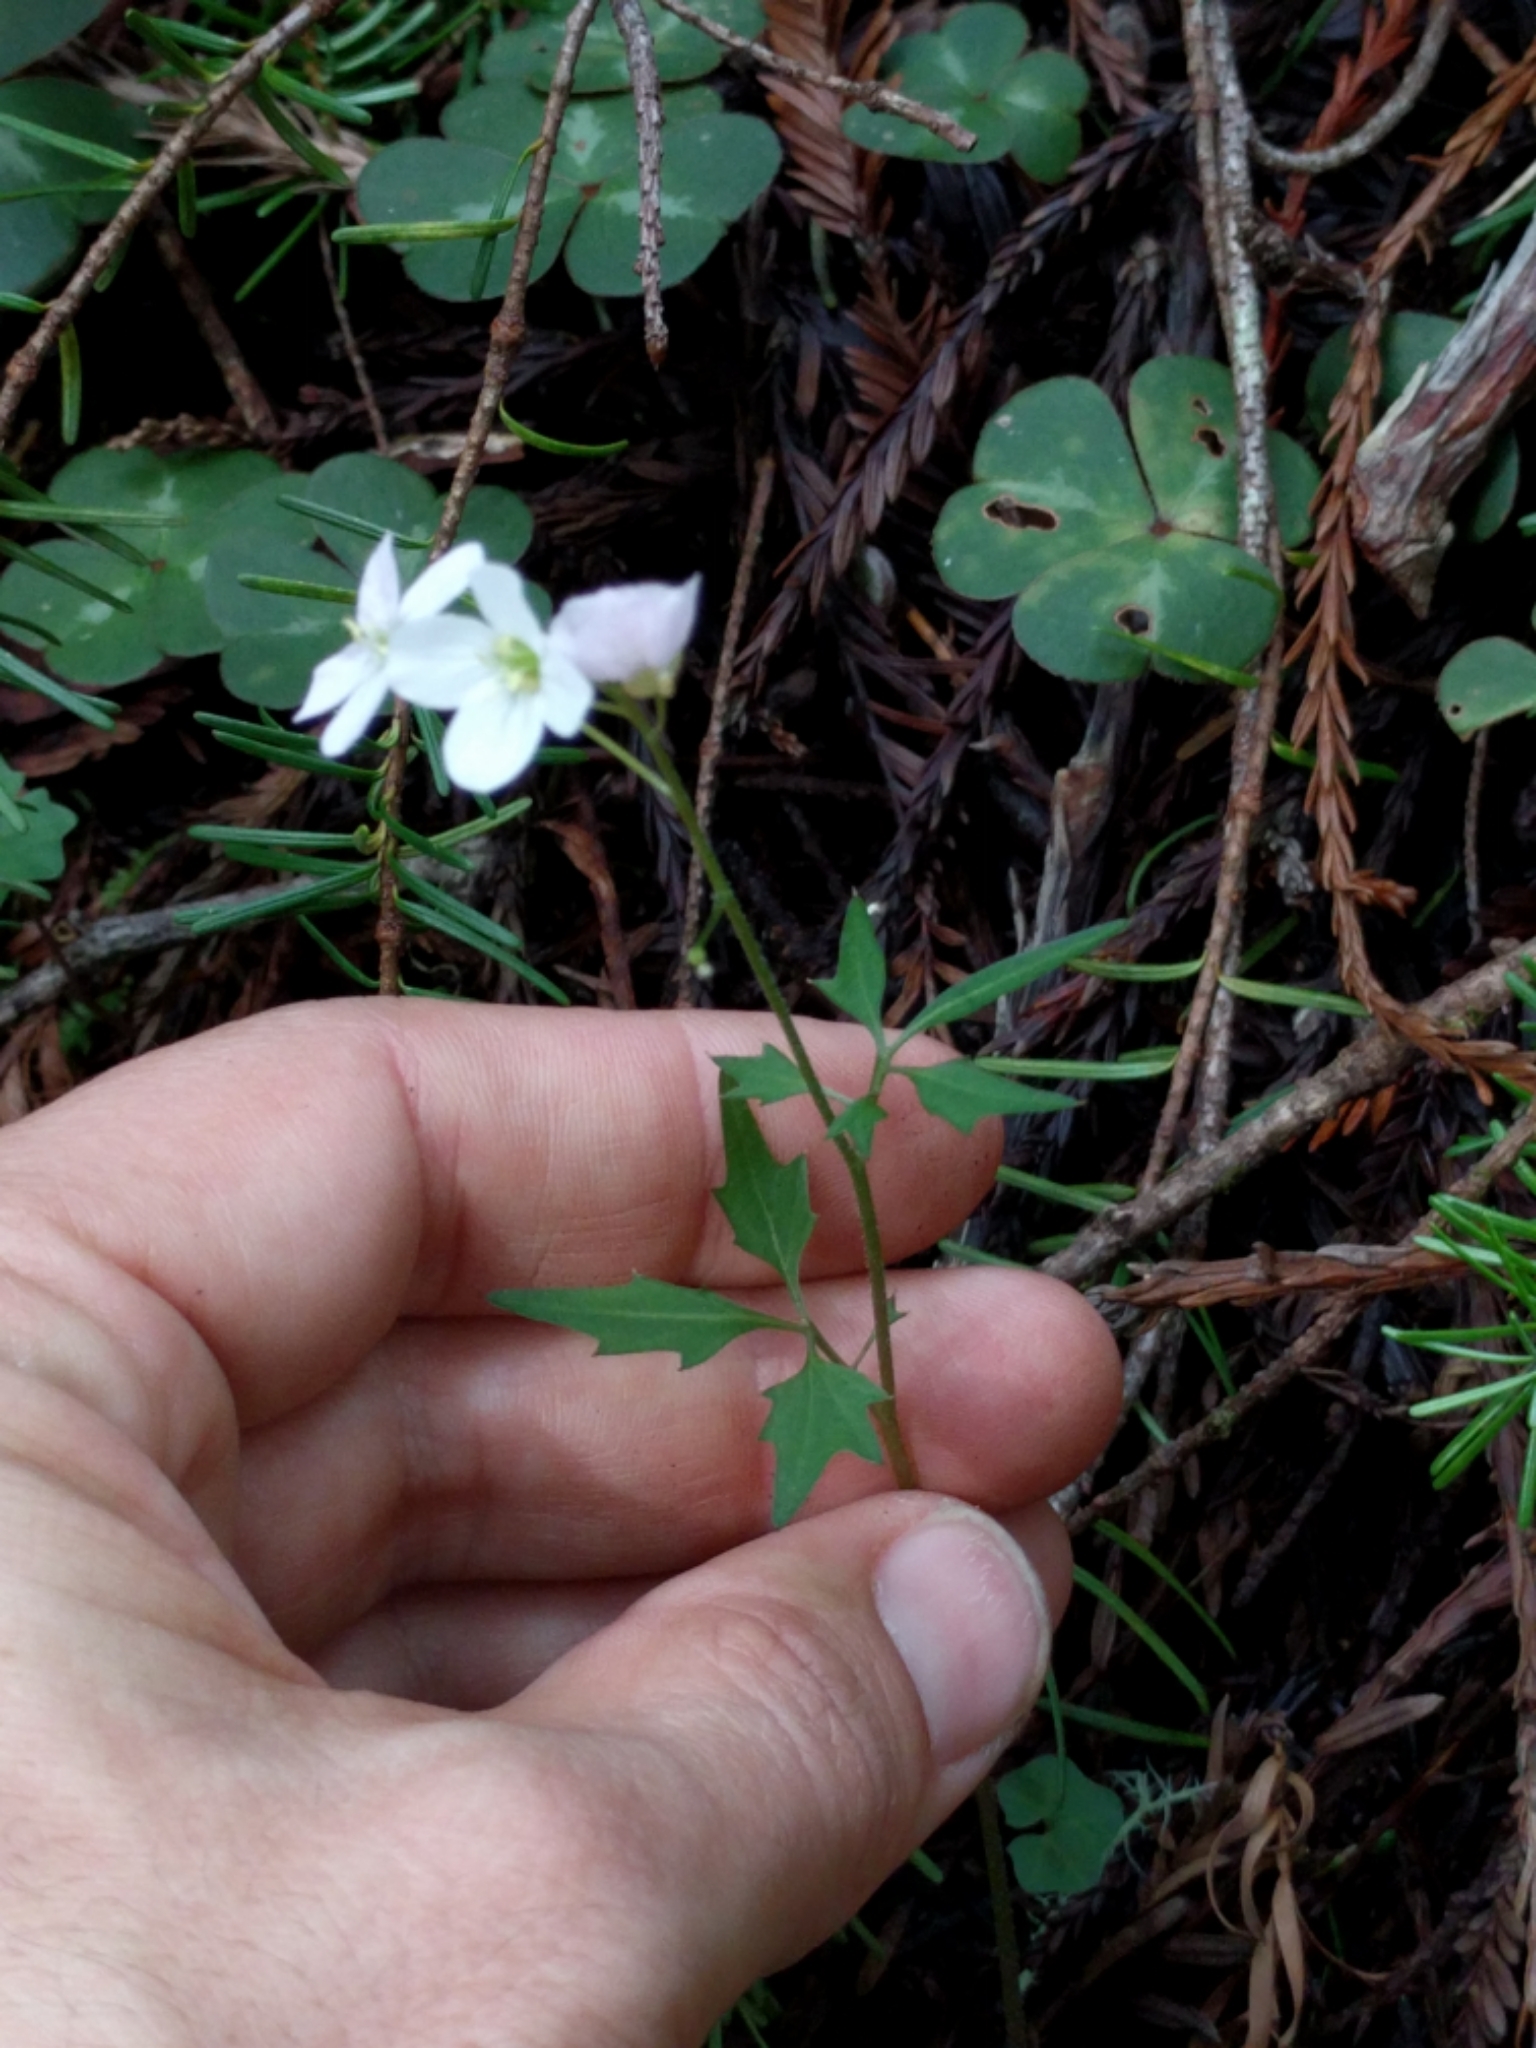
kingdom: Plantae
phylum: Tracheophyta
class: Magnoliopsida
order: Brassicales
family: Brassicaceae
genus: Cardamine
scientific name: Cardamine californica
